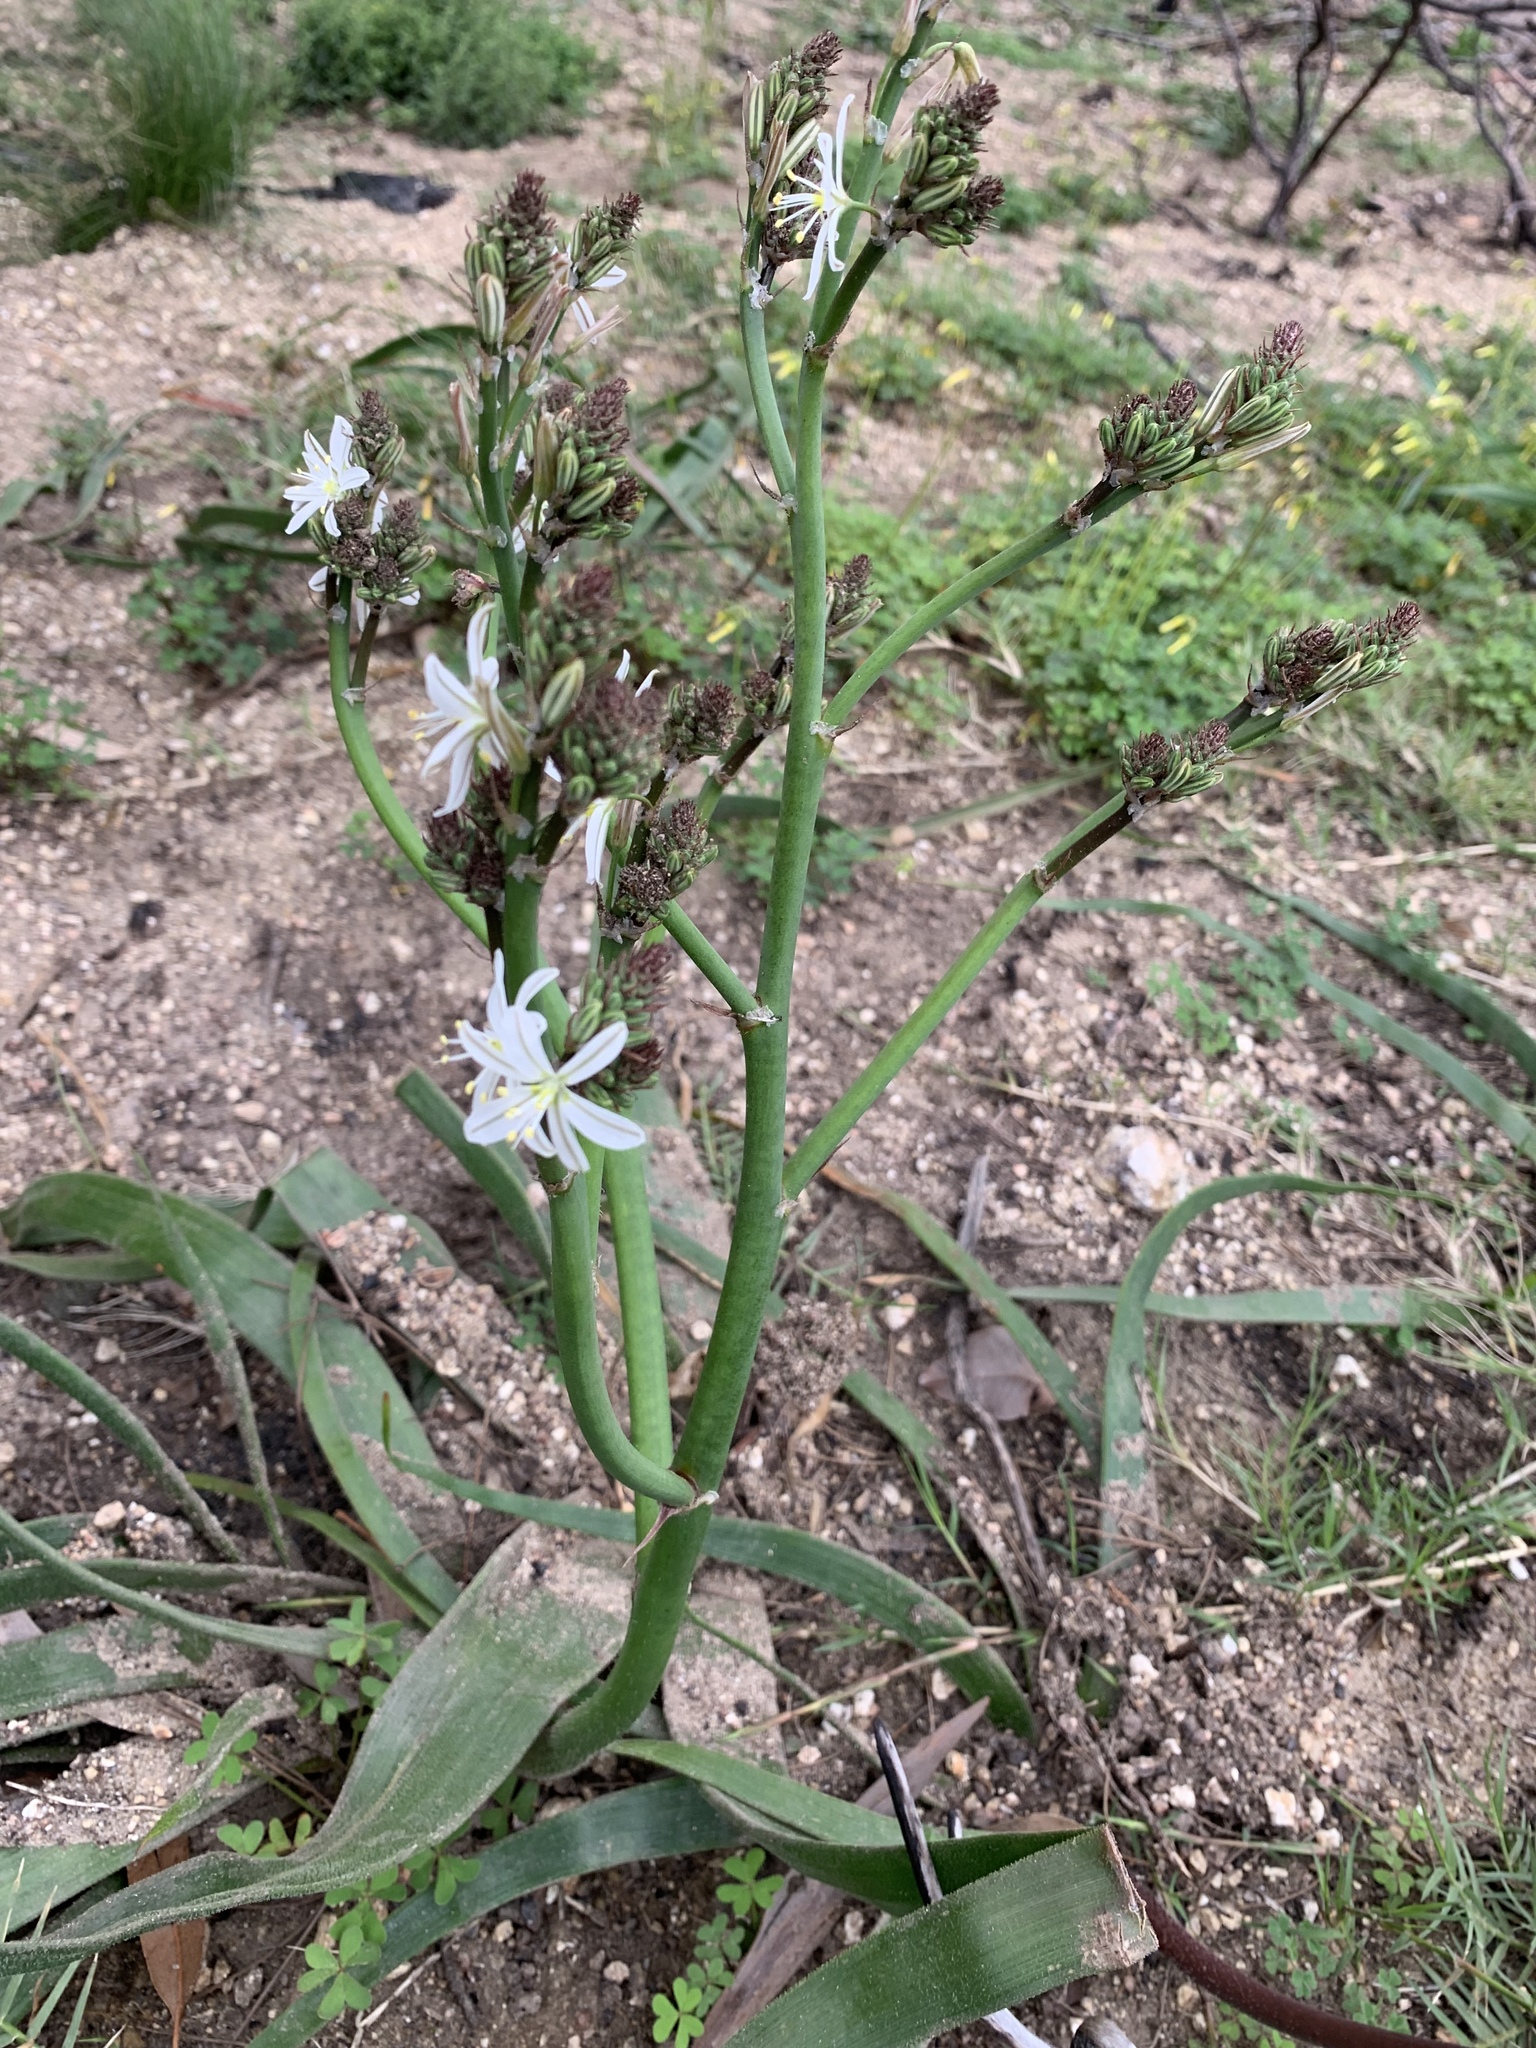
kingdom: Plantae
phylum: Tracheophyta
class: Liliopsida
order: Asparagales
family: Asphodelaceae
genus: Trachyandra
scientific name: Trachyandra muricata
